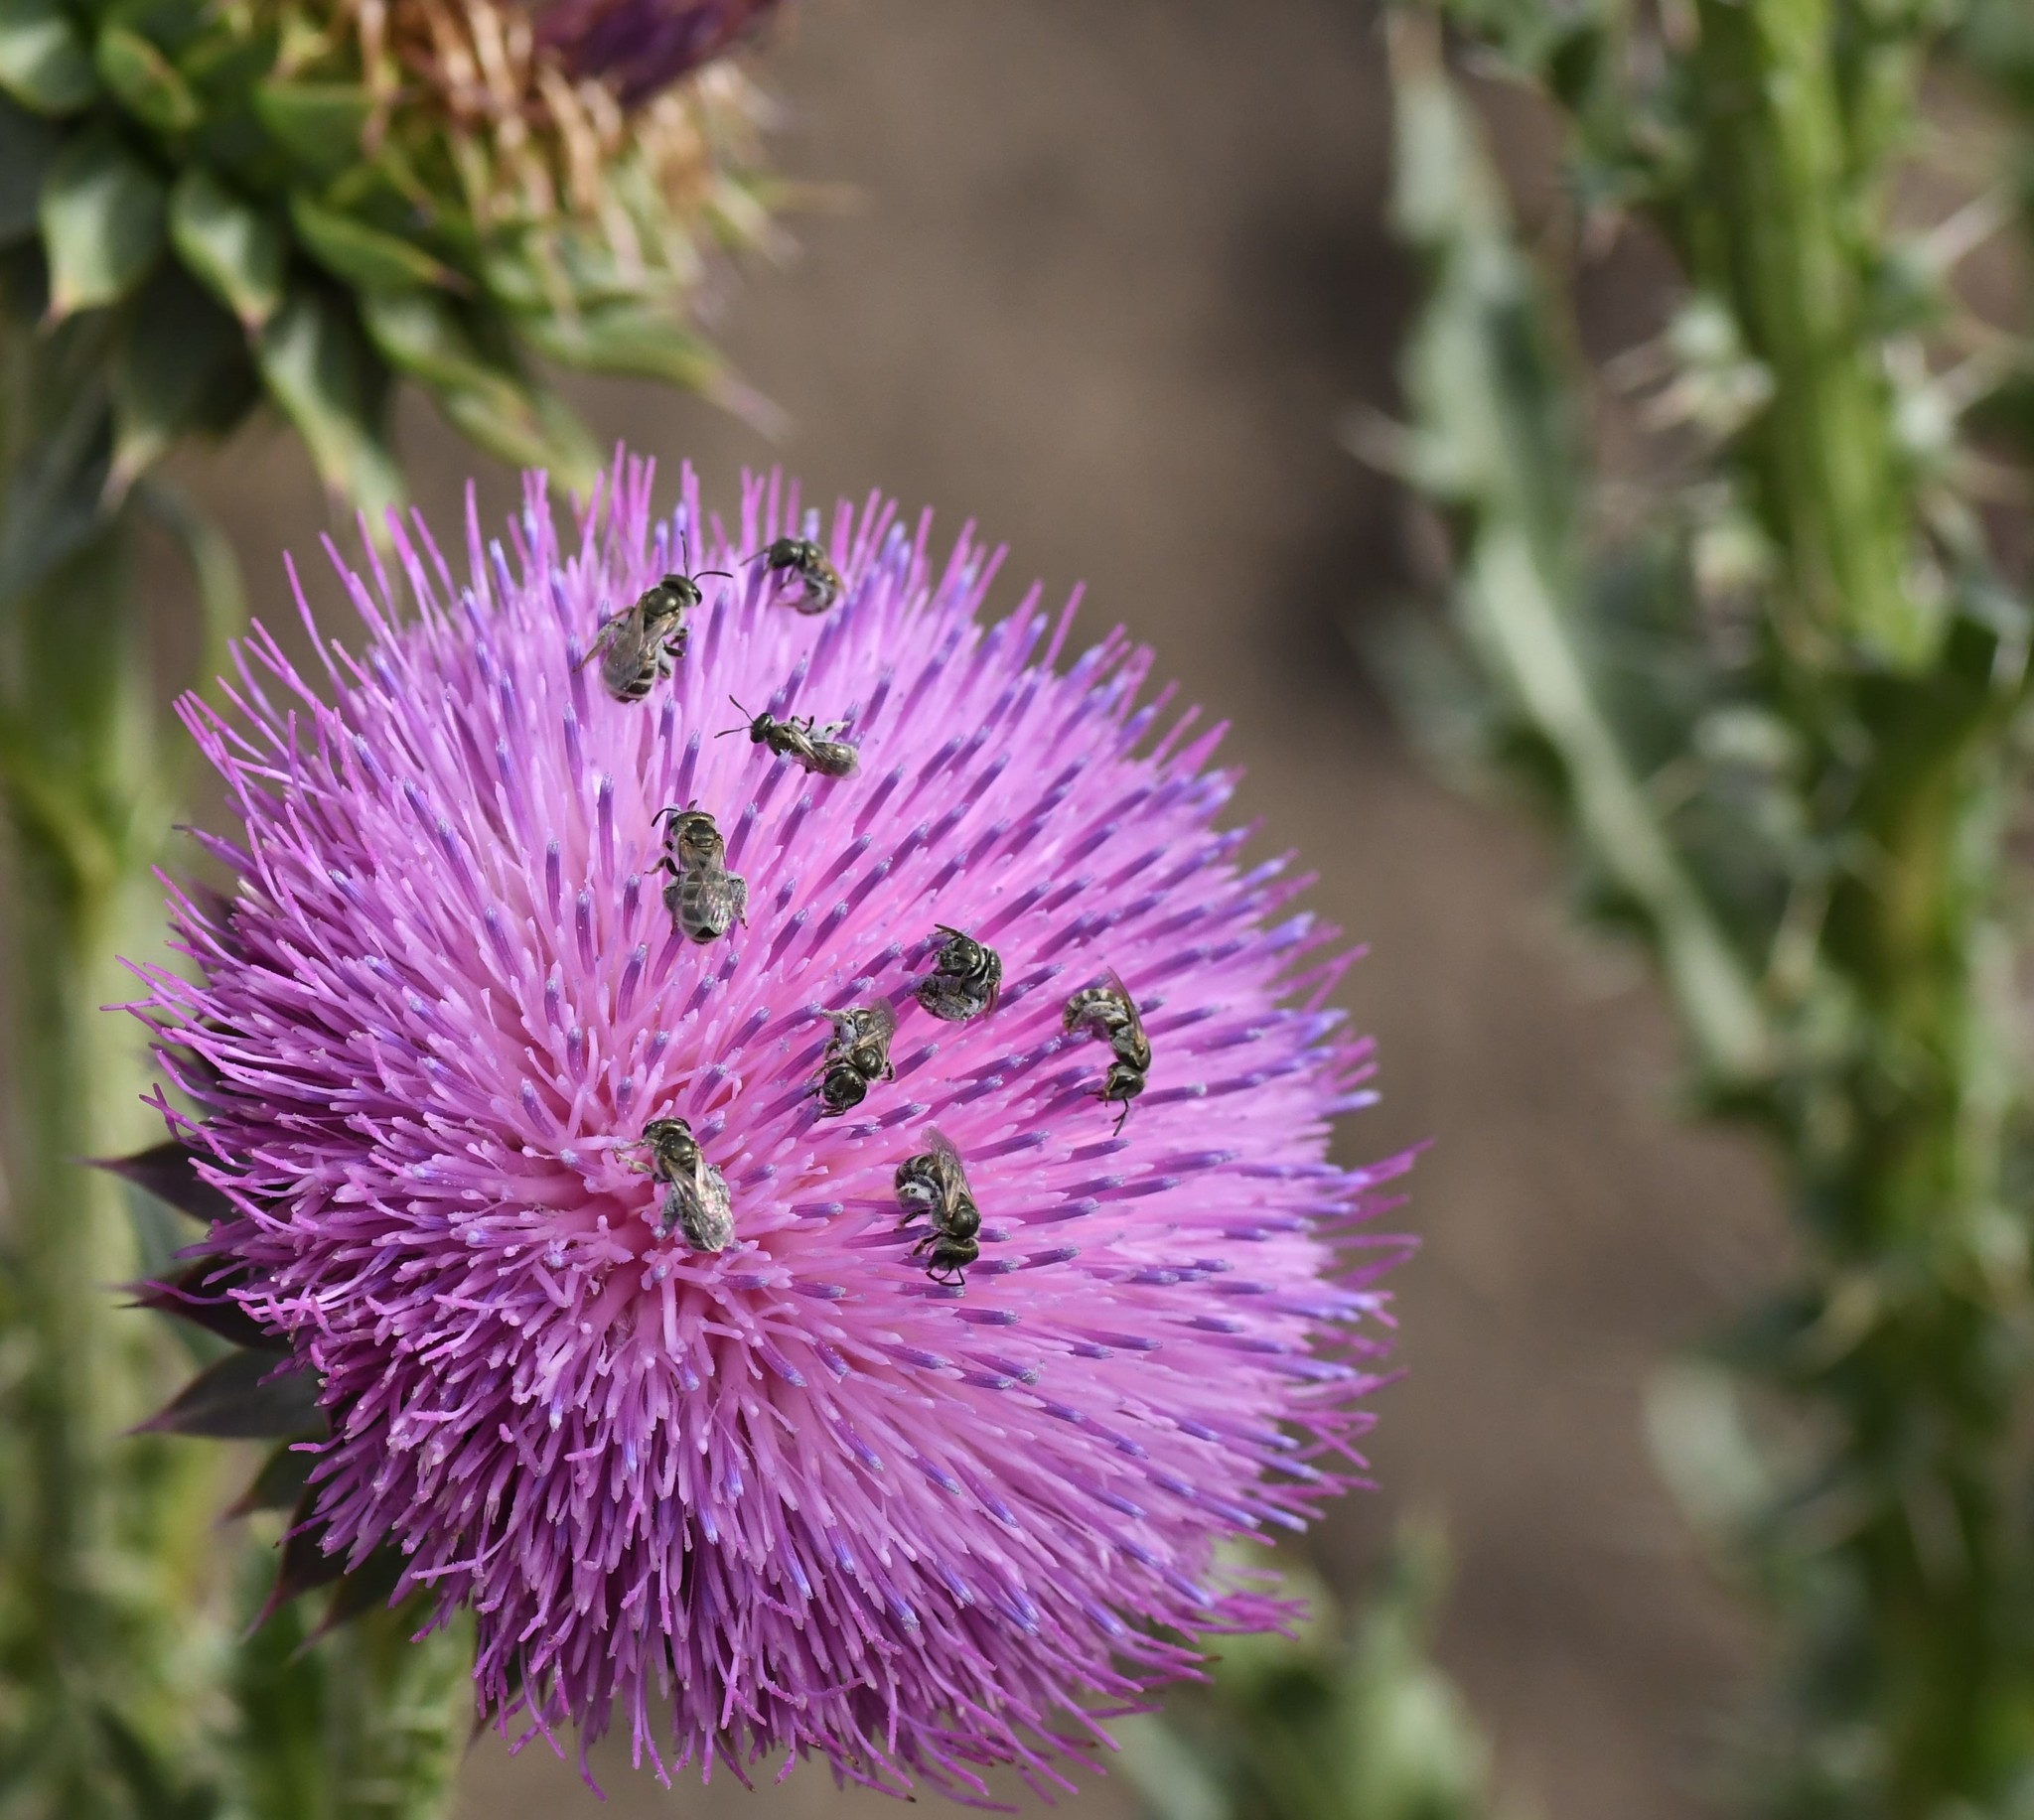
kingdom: Animalia
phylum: Arthropoda
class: Insecta
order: Hymenoptera
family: Halictidae
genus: Halictus
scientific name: Halictus tripartitus
